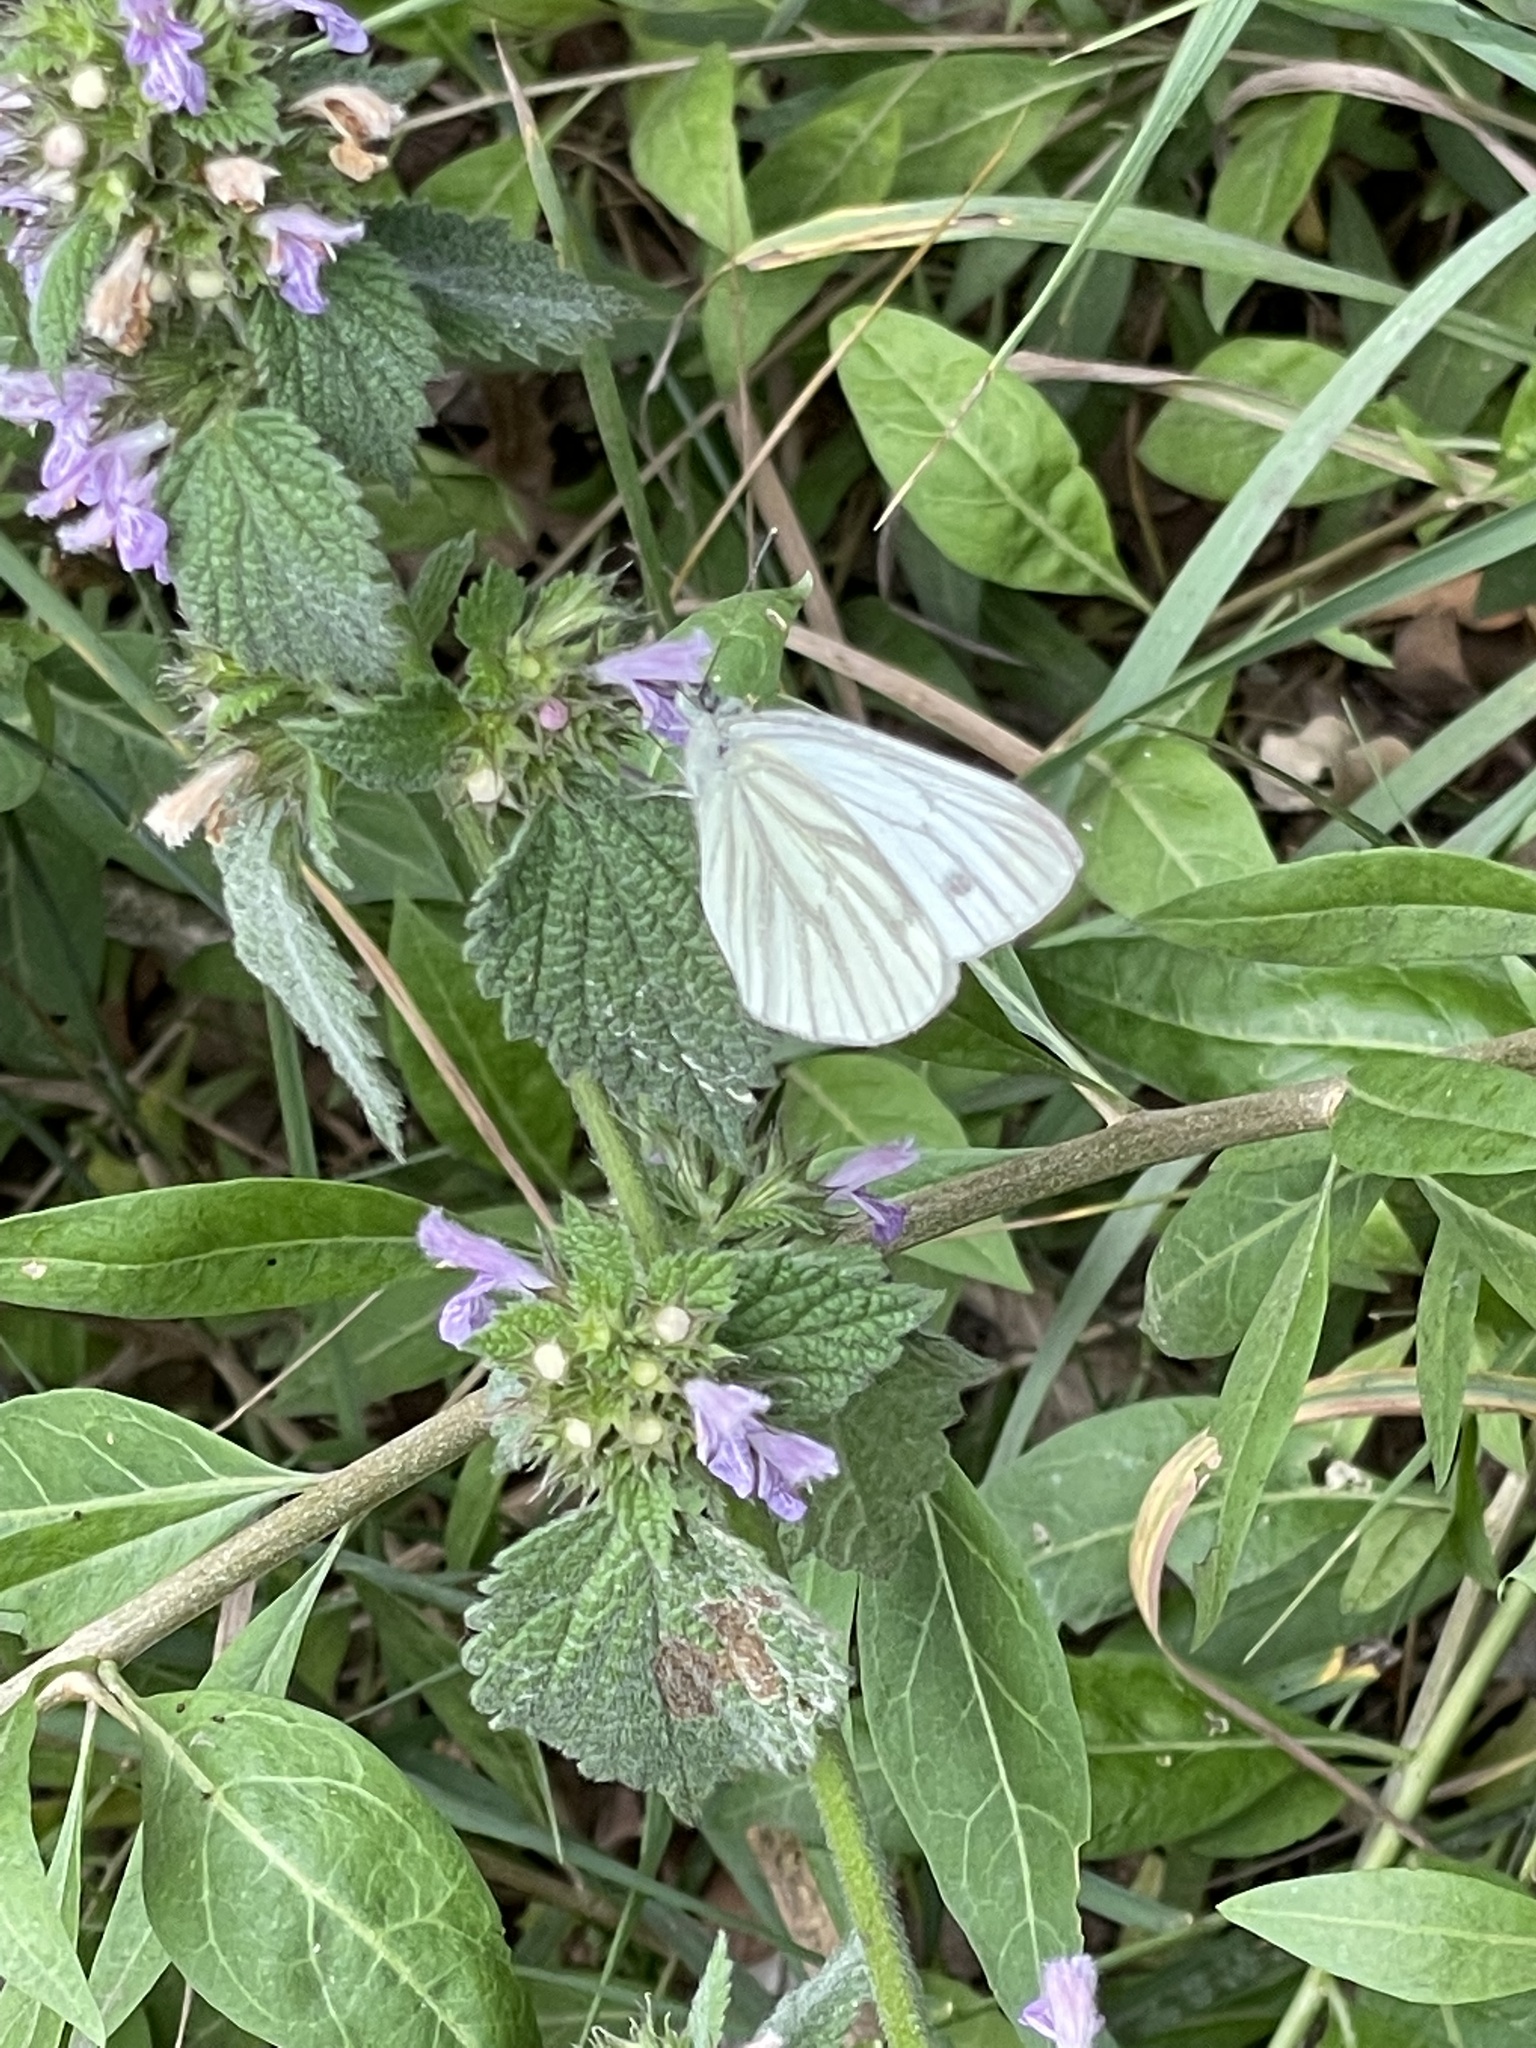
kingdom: Animalia
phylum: Arthropoda
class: Insecta
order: Lepidoptera
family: Pieridae
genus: Pieris
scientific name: Pieris napi
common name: Green-veined white
